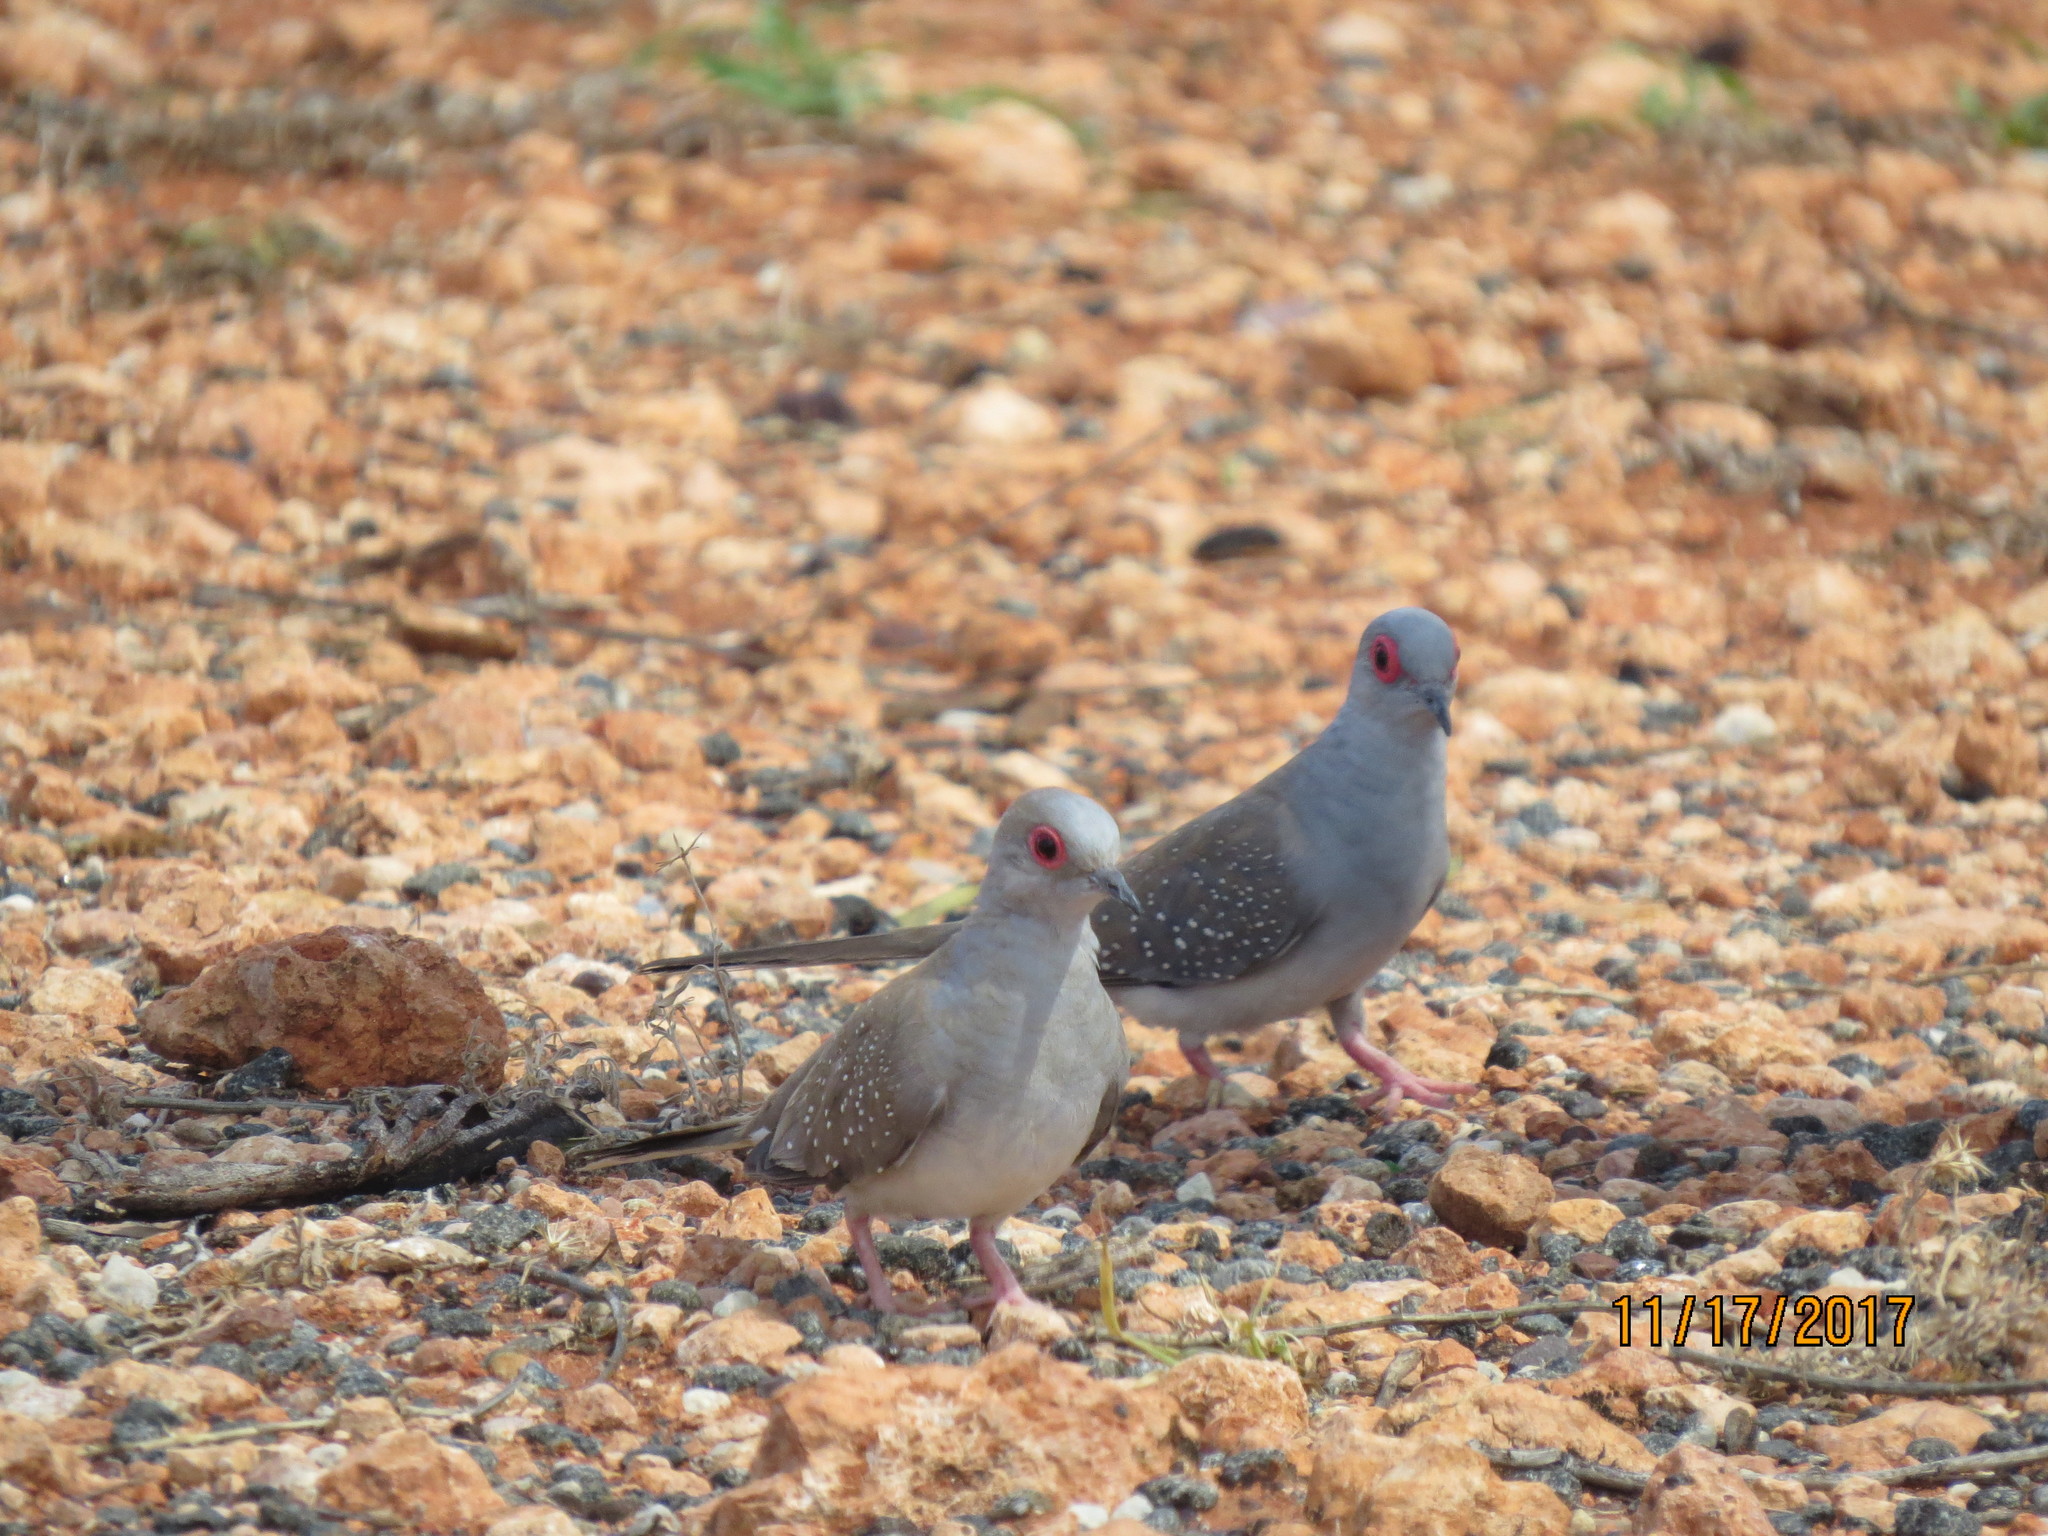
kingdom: Animalia
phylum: Chordata
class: Aves
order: Columbiformes
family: Columbidae
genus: Geopelia
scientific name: Geopelia cuneata
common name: Diamond dove
